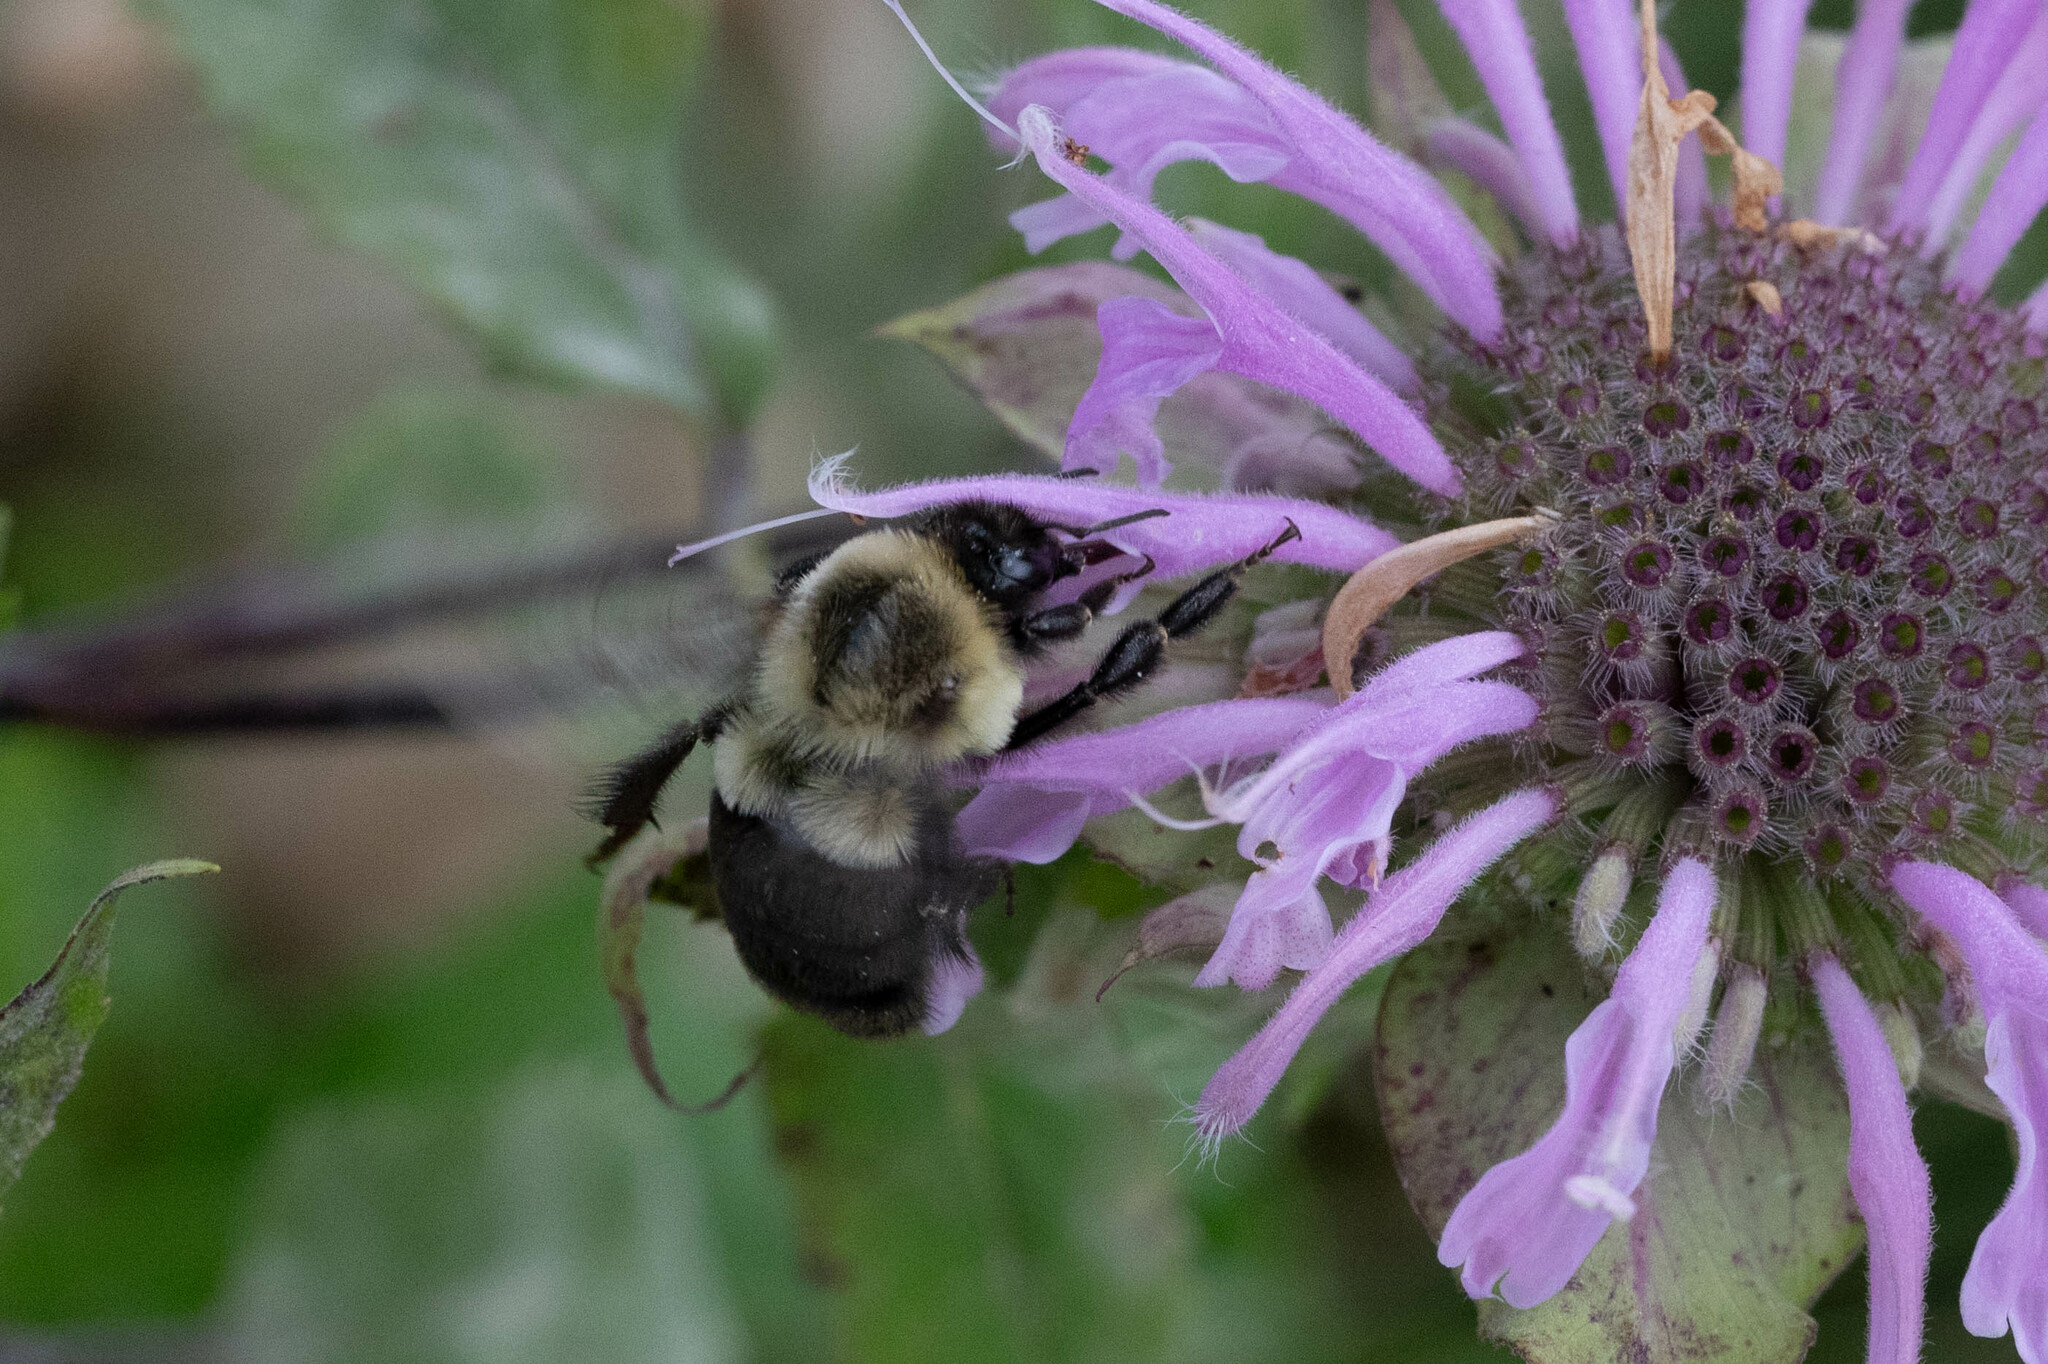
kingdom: Animalia
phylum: Arthropoda
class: Insecta
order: Hymenoptera
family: Apidae
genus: Bombus
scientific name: Bombus impatiens
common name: Common eastern bumble bee
